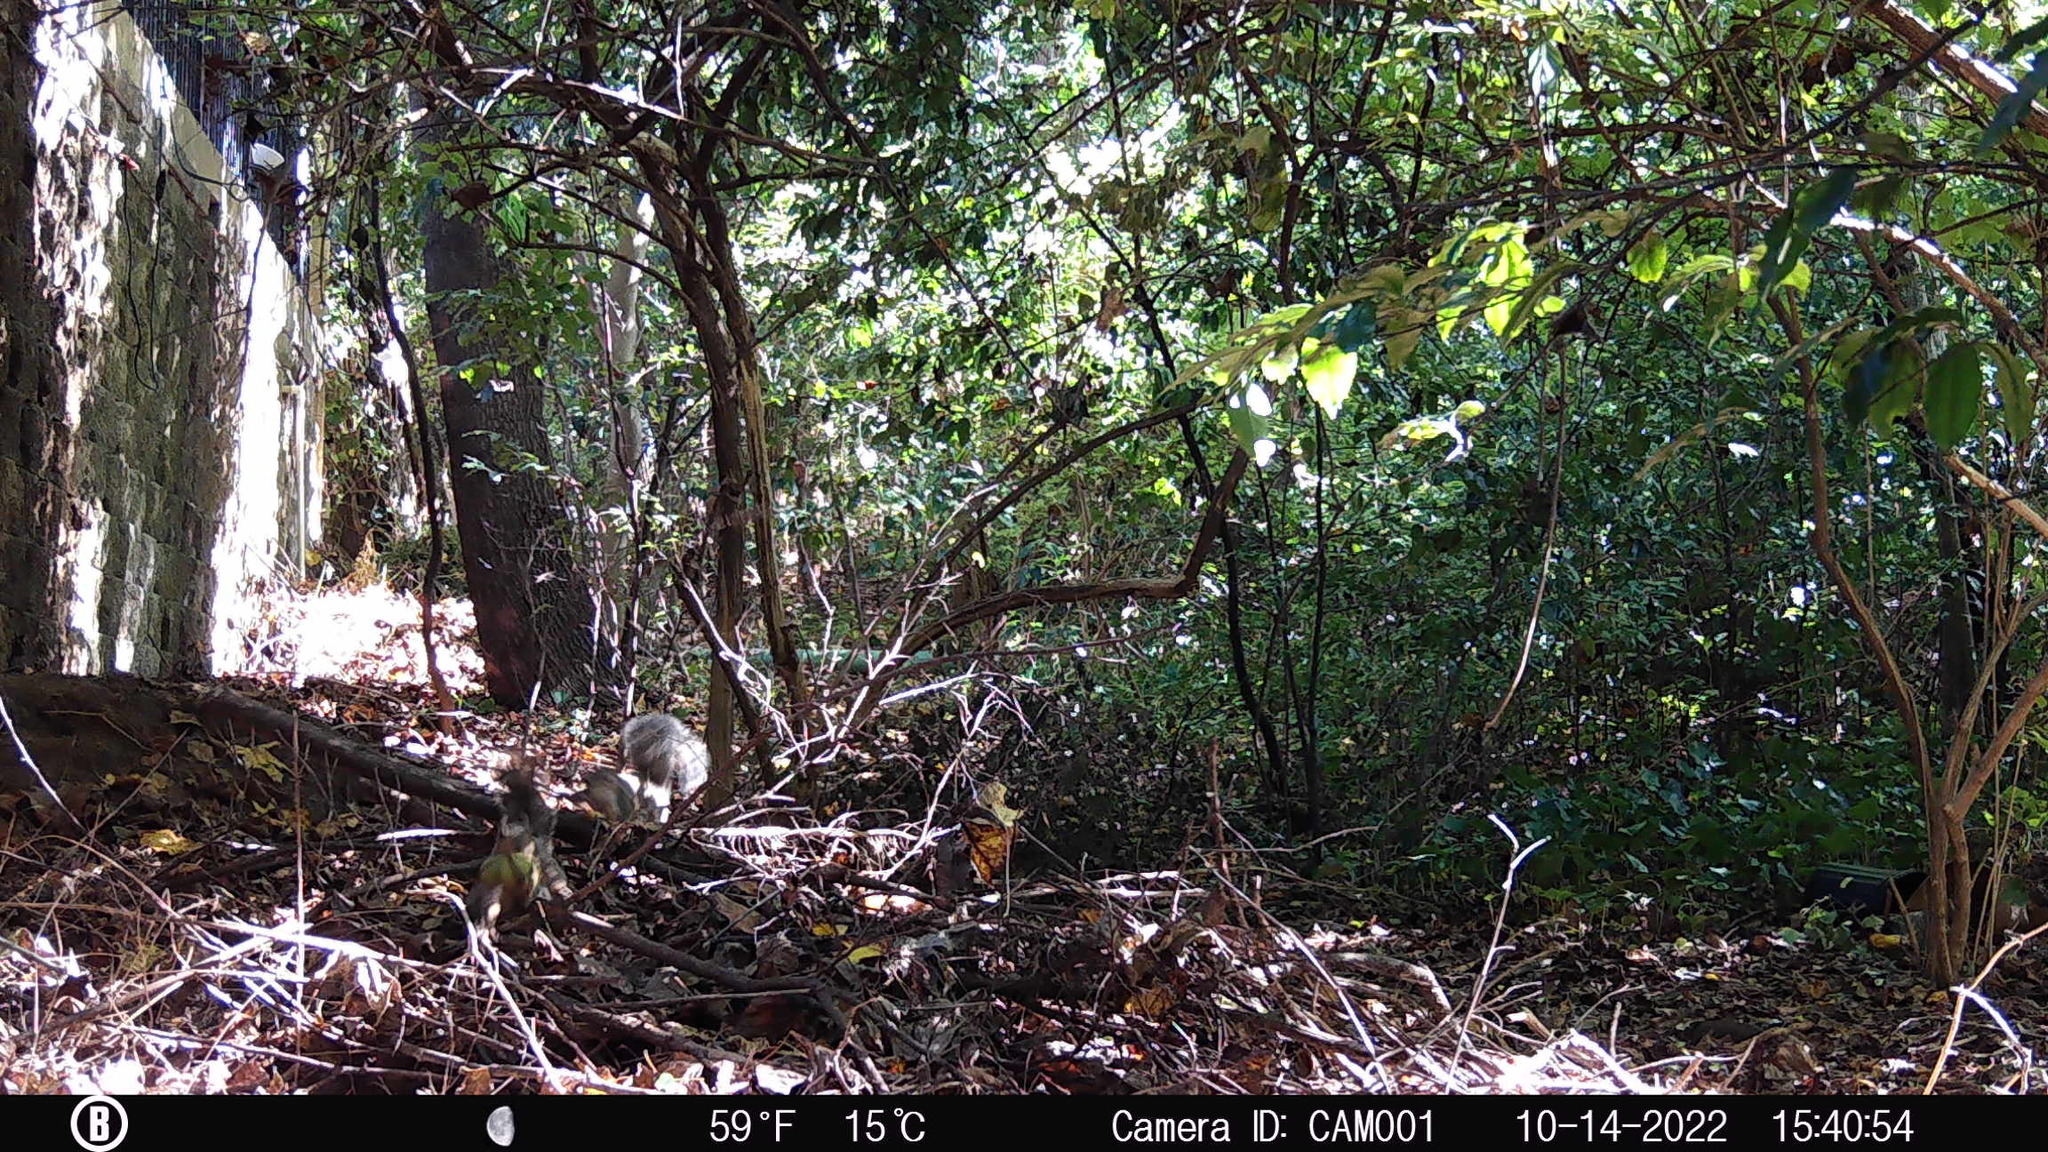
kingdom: Animalia
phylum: Chordata
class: Mammalia
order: Rodentia
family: Sciuridae
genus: Sciurus
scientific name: Sciurus carolinensis
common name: Eastern gray squirrel
